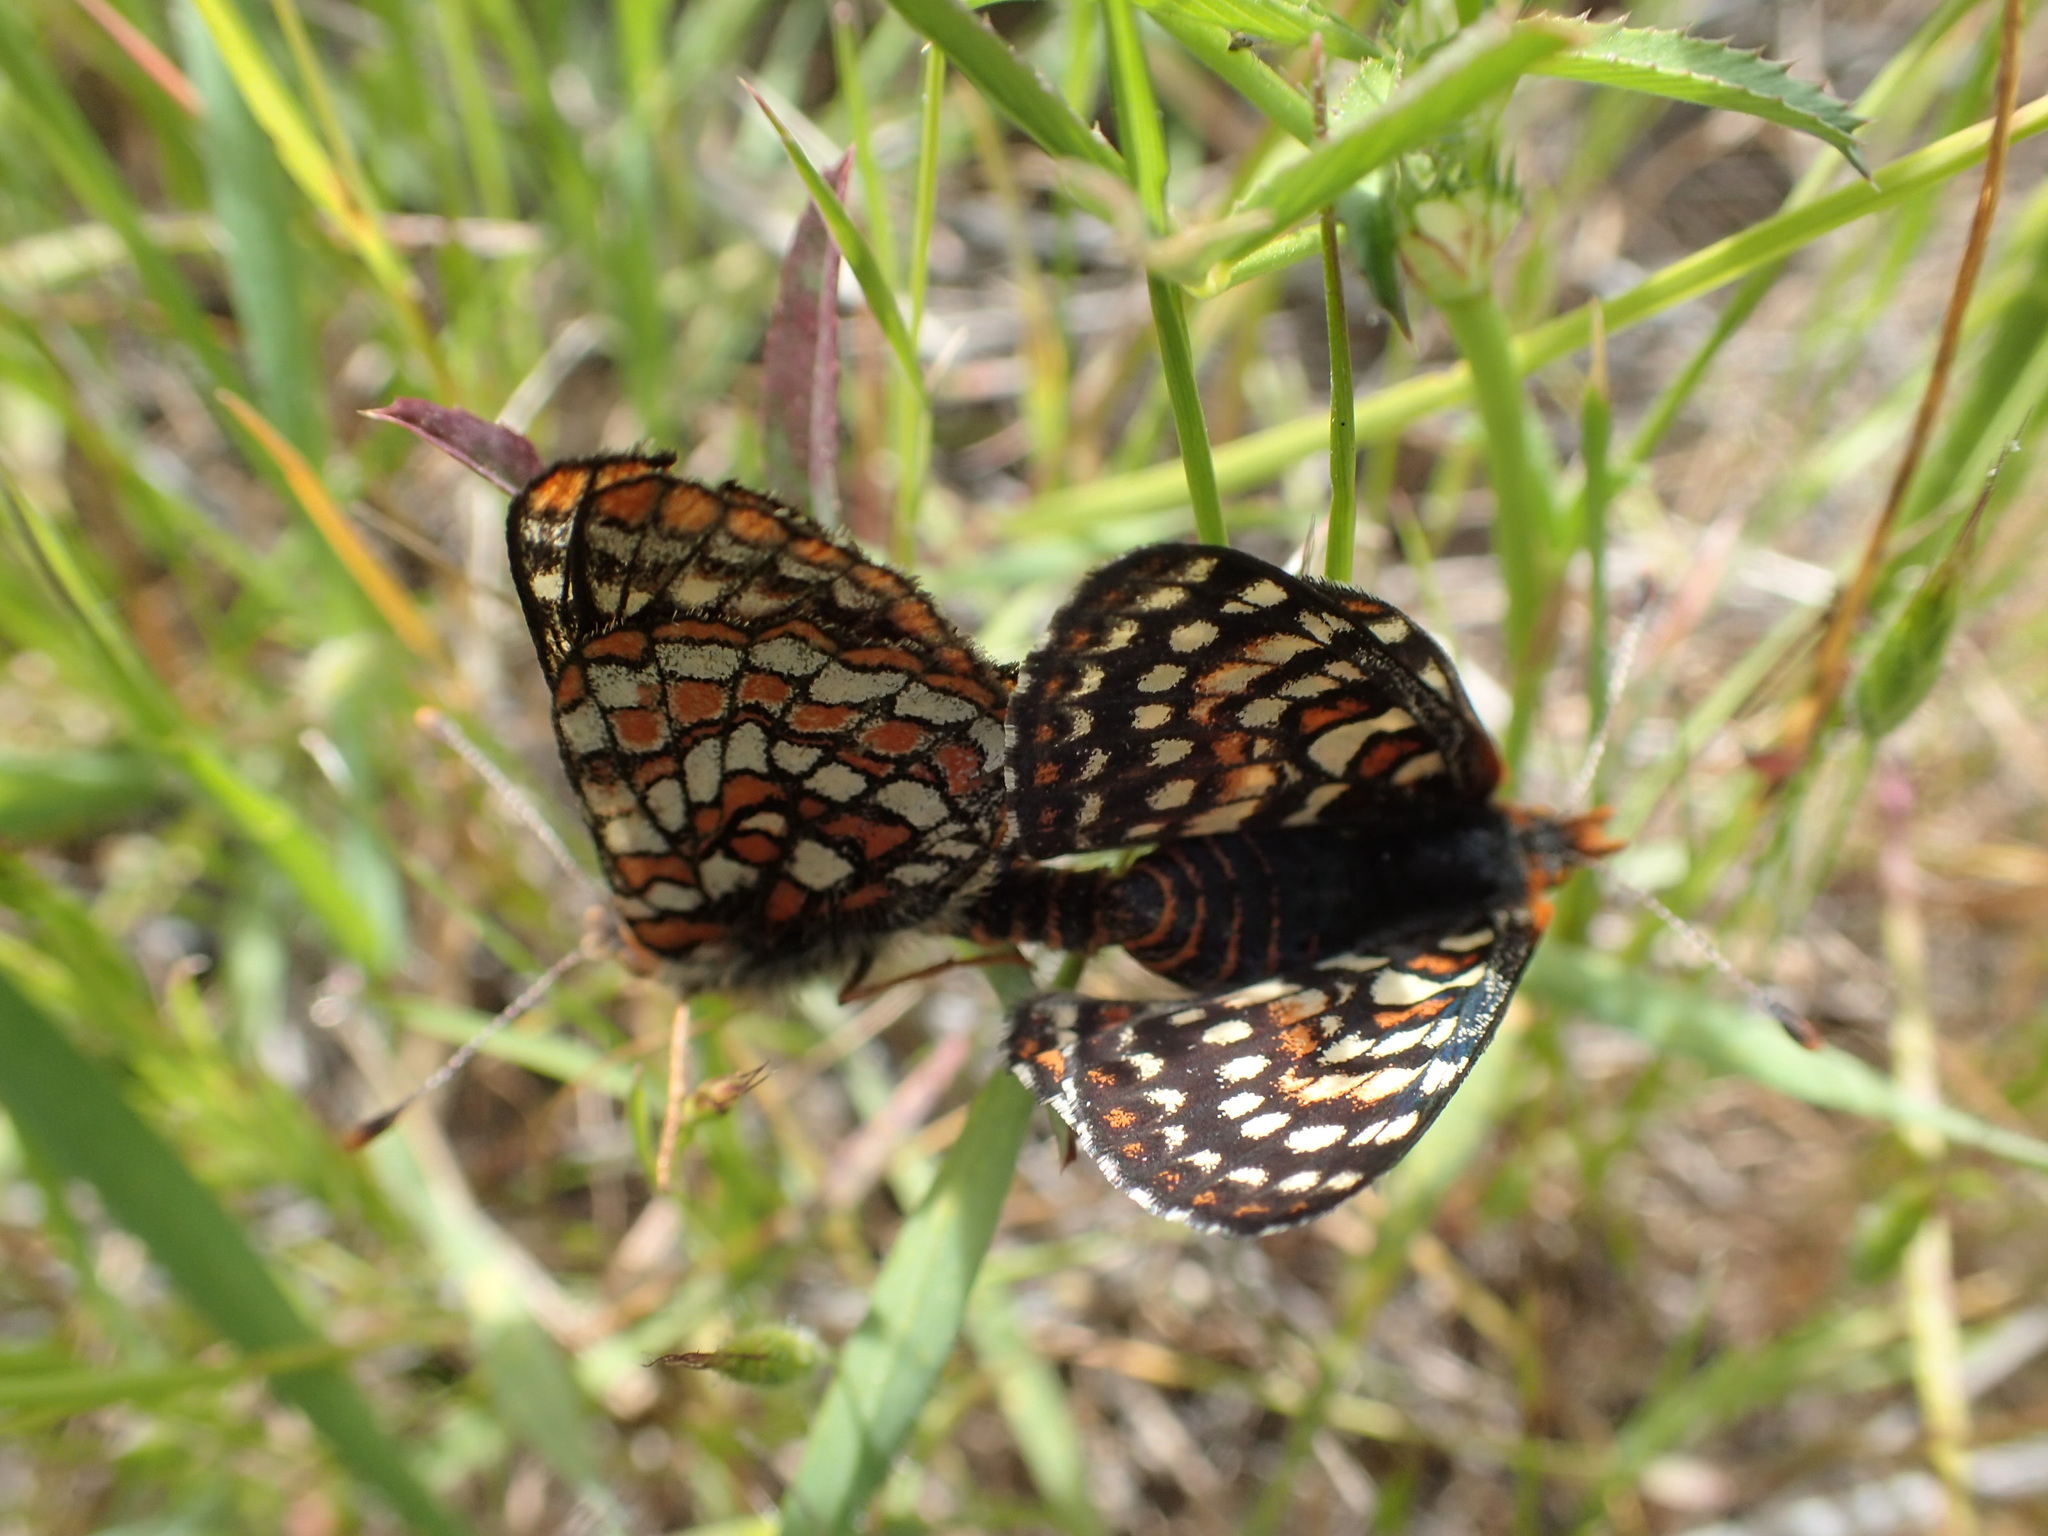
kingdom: Animalia
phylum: Arthropoda
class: Insecta
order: Lepidoptera
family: Nymphalidae
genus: Occidryas
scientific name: Occidryas editha
